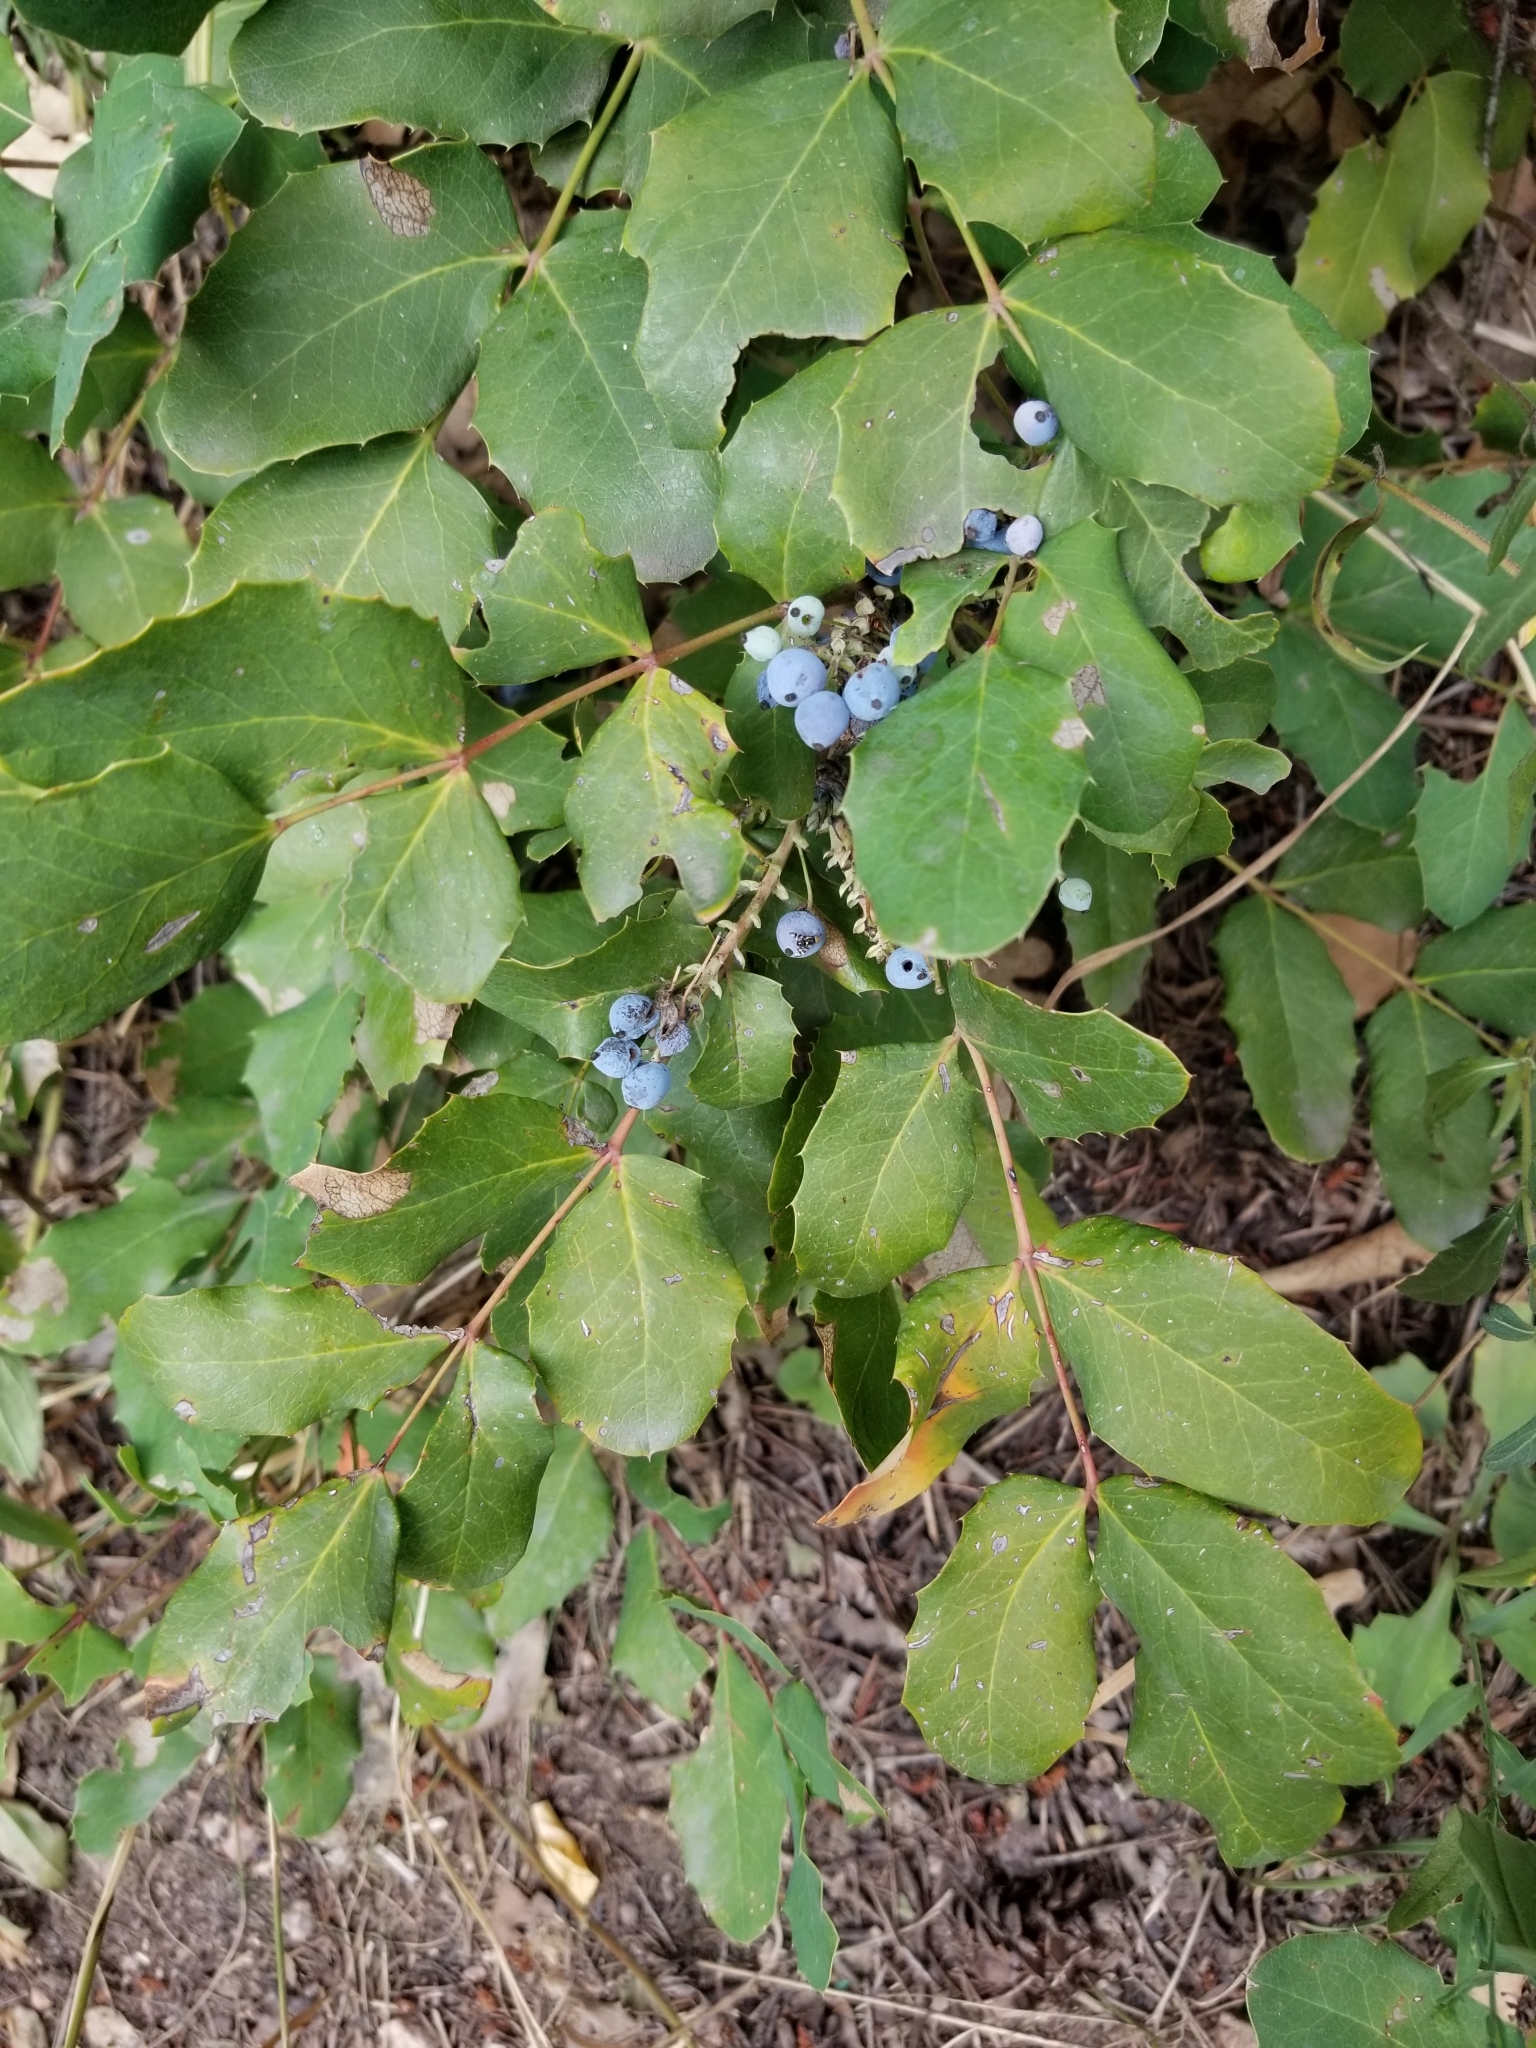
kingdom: Plantae
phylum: Tracheophyta
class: Magnoliopsida
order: Ranunculales
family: Berberidaceae
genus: Mahonia
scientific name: Mahonia repens
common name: Creeping oregon-grape
